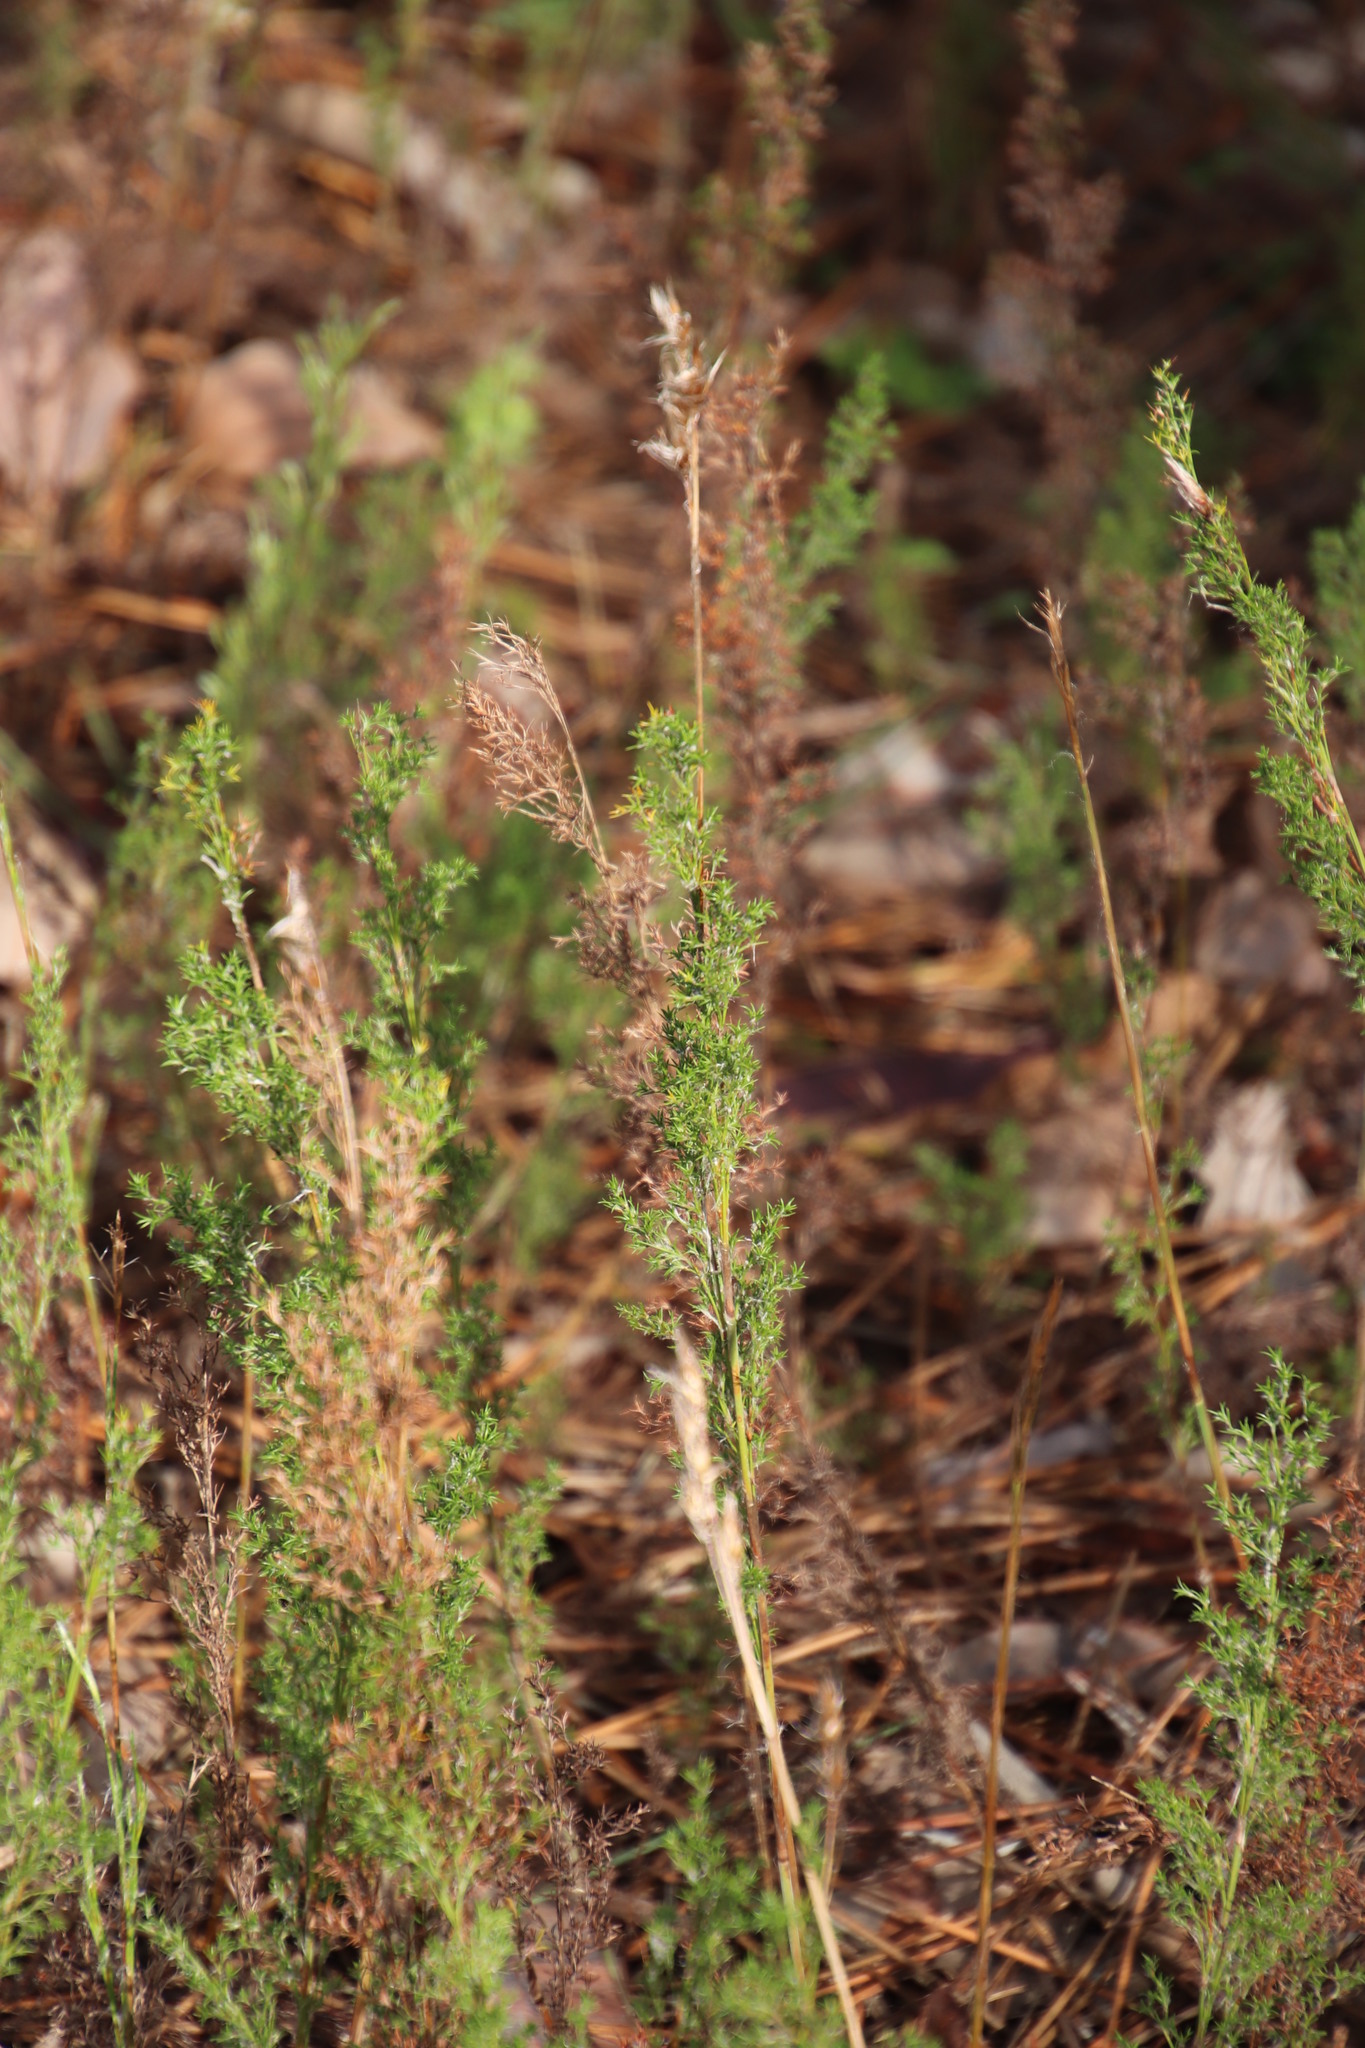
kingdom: Plantae
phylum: Tracheophyta
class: Liliopsida
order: Poales
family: Restionaceae
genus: Thamnochortus
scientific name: Thamnochortus fruticosus
